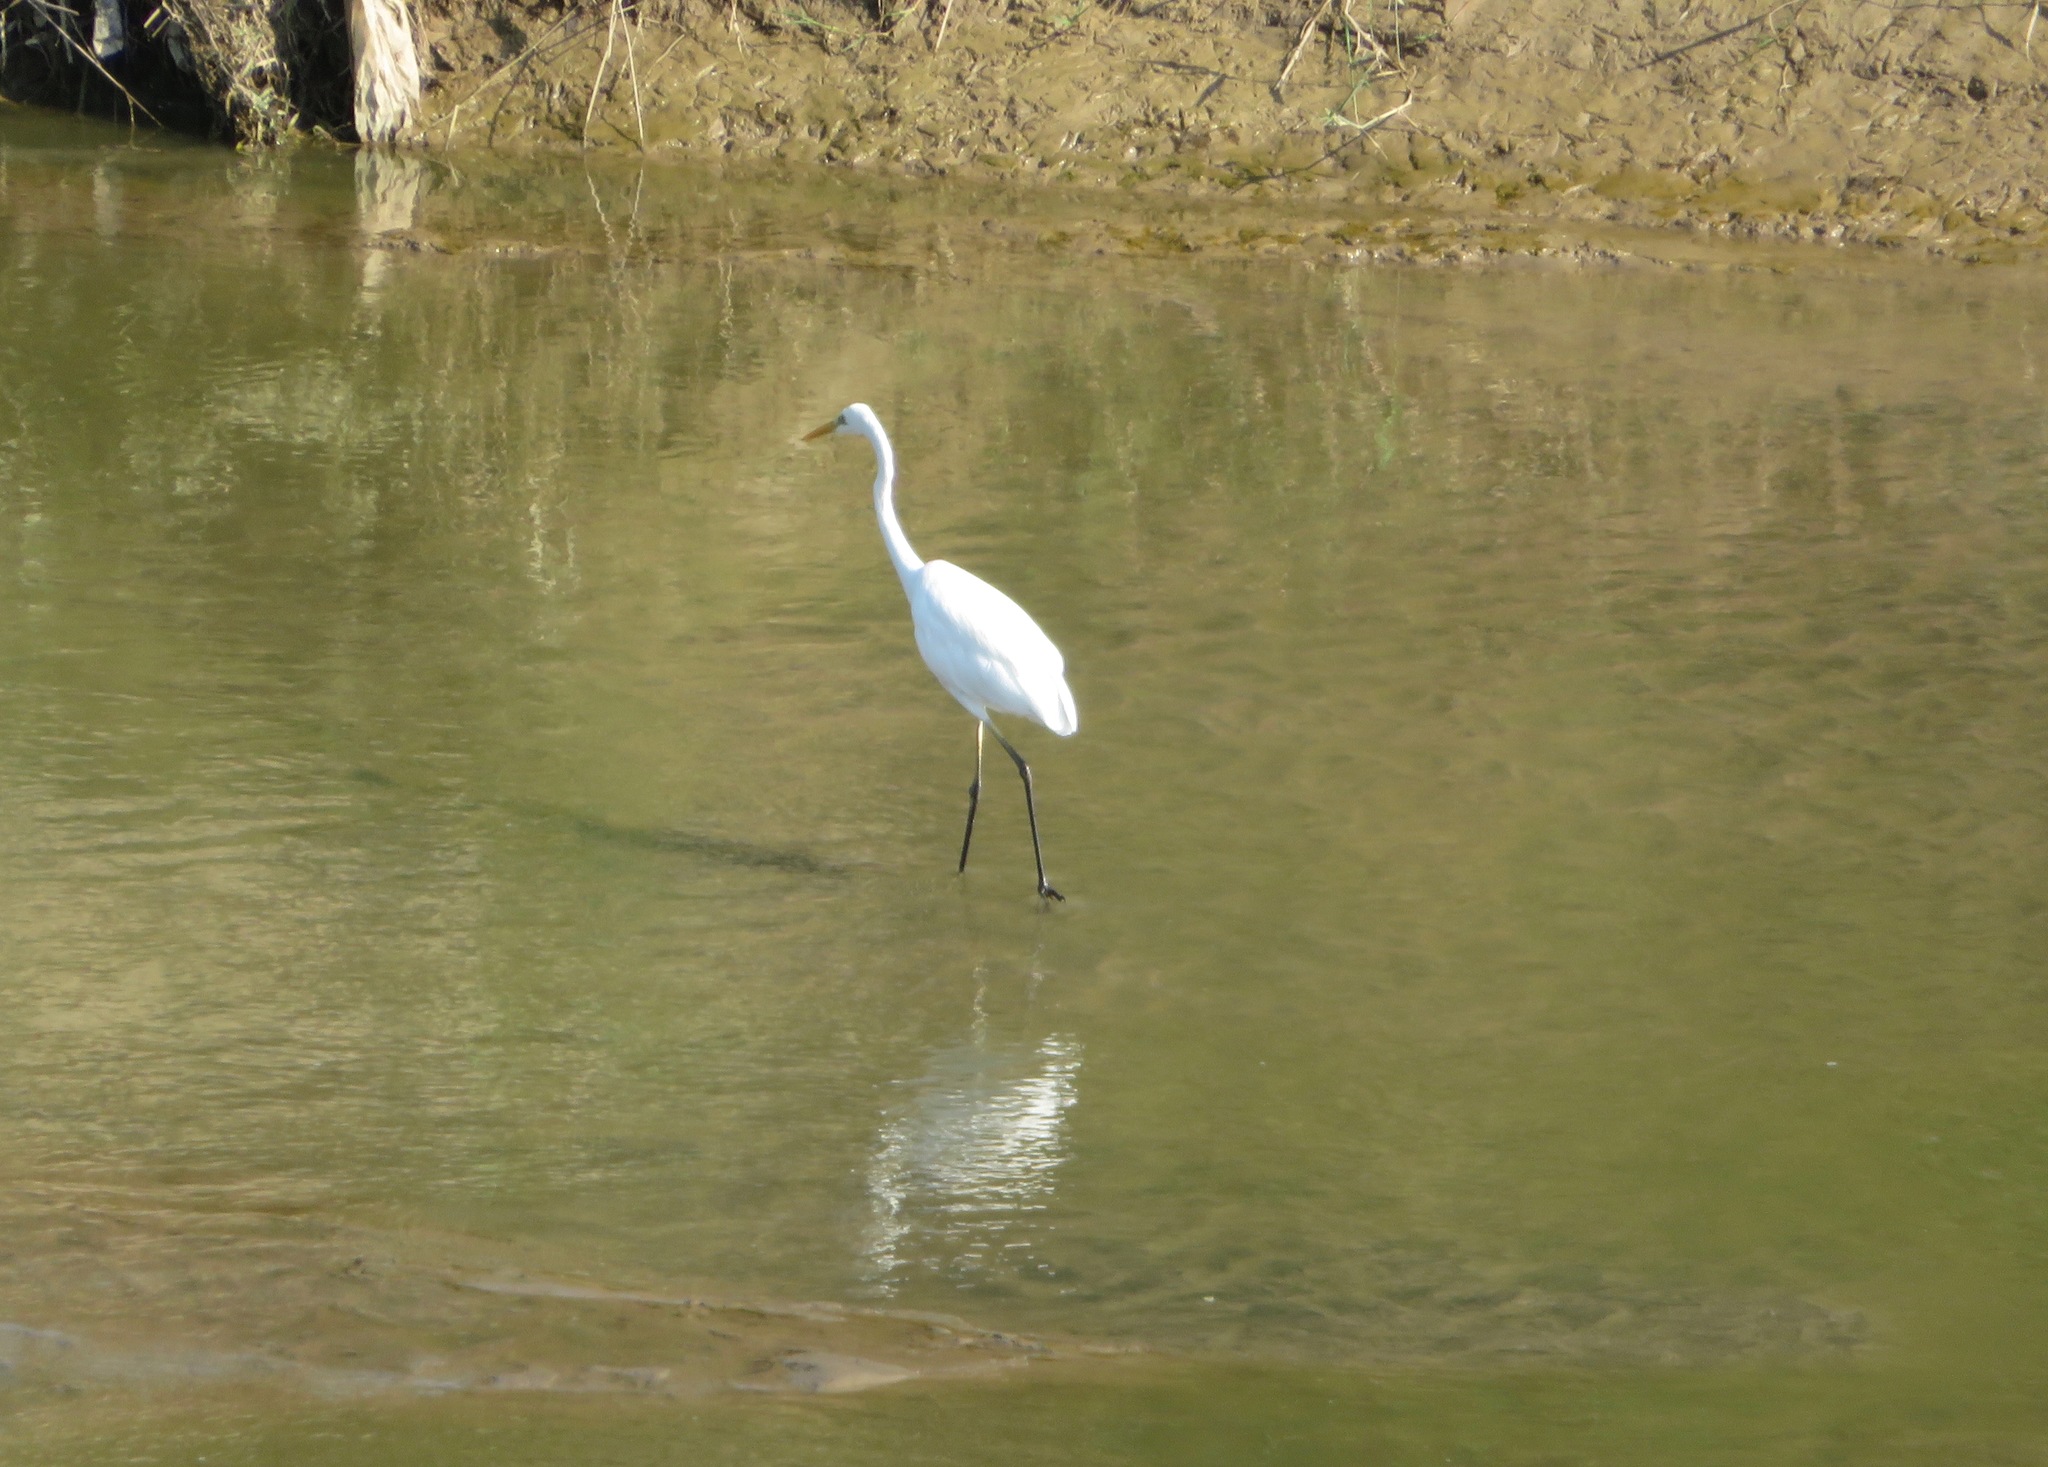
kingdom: Animalia
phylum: Chordata
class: Aves
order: Pelecaniformes
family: Ardeidae
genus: Ardea
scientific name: Ardea modesta
